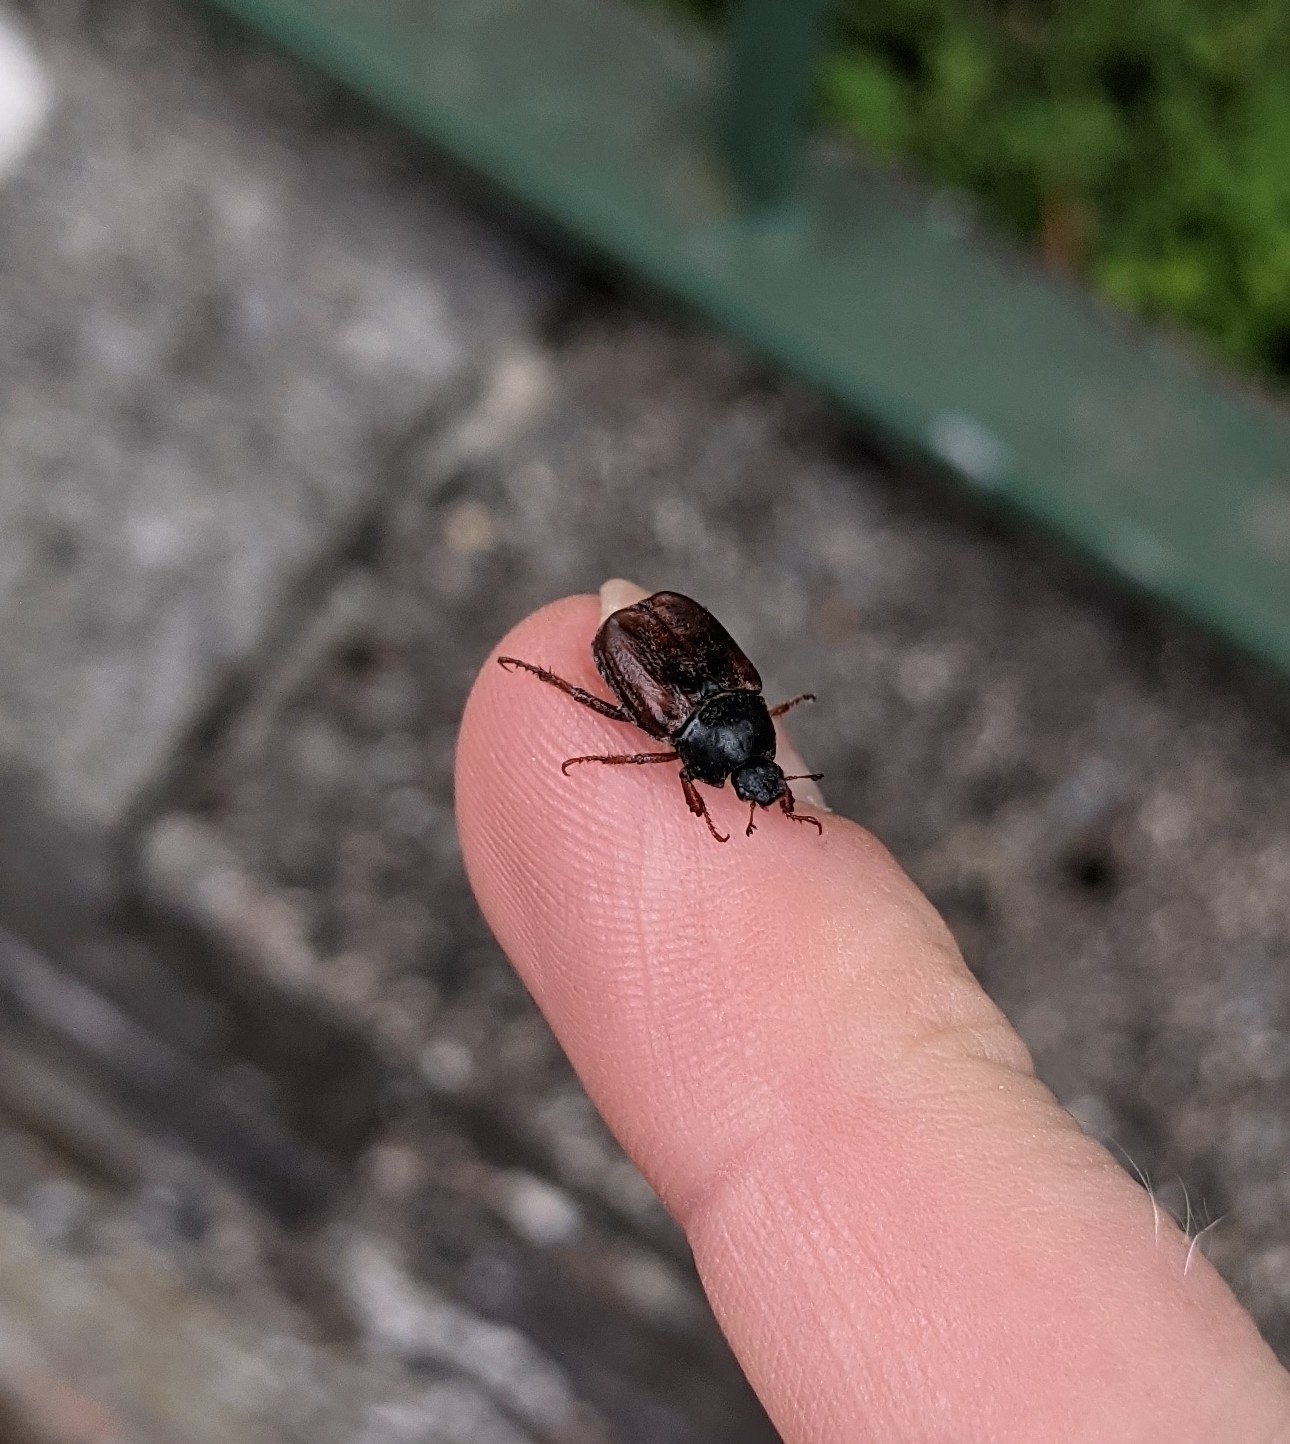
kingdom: Animalia
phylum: Arthropoda
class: Insecta
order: Coleoptera
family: Scarabaeidae
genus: Hoplia
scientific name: Hoplia philanthus
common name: Welsh chafer
